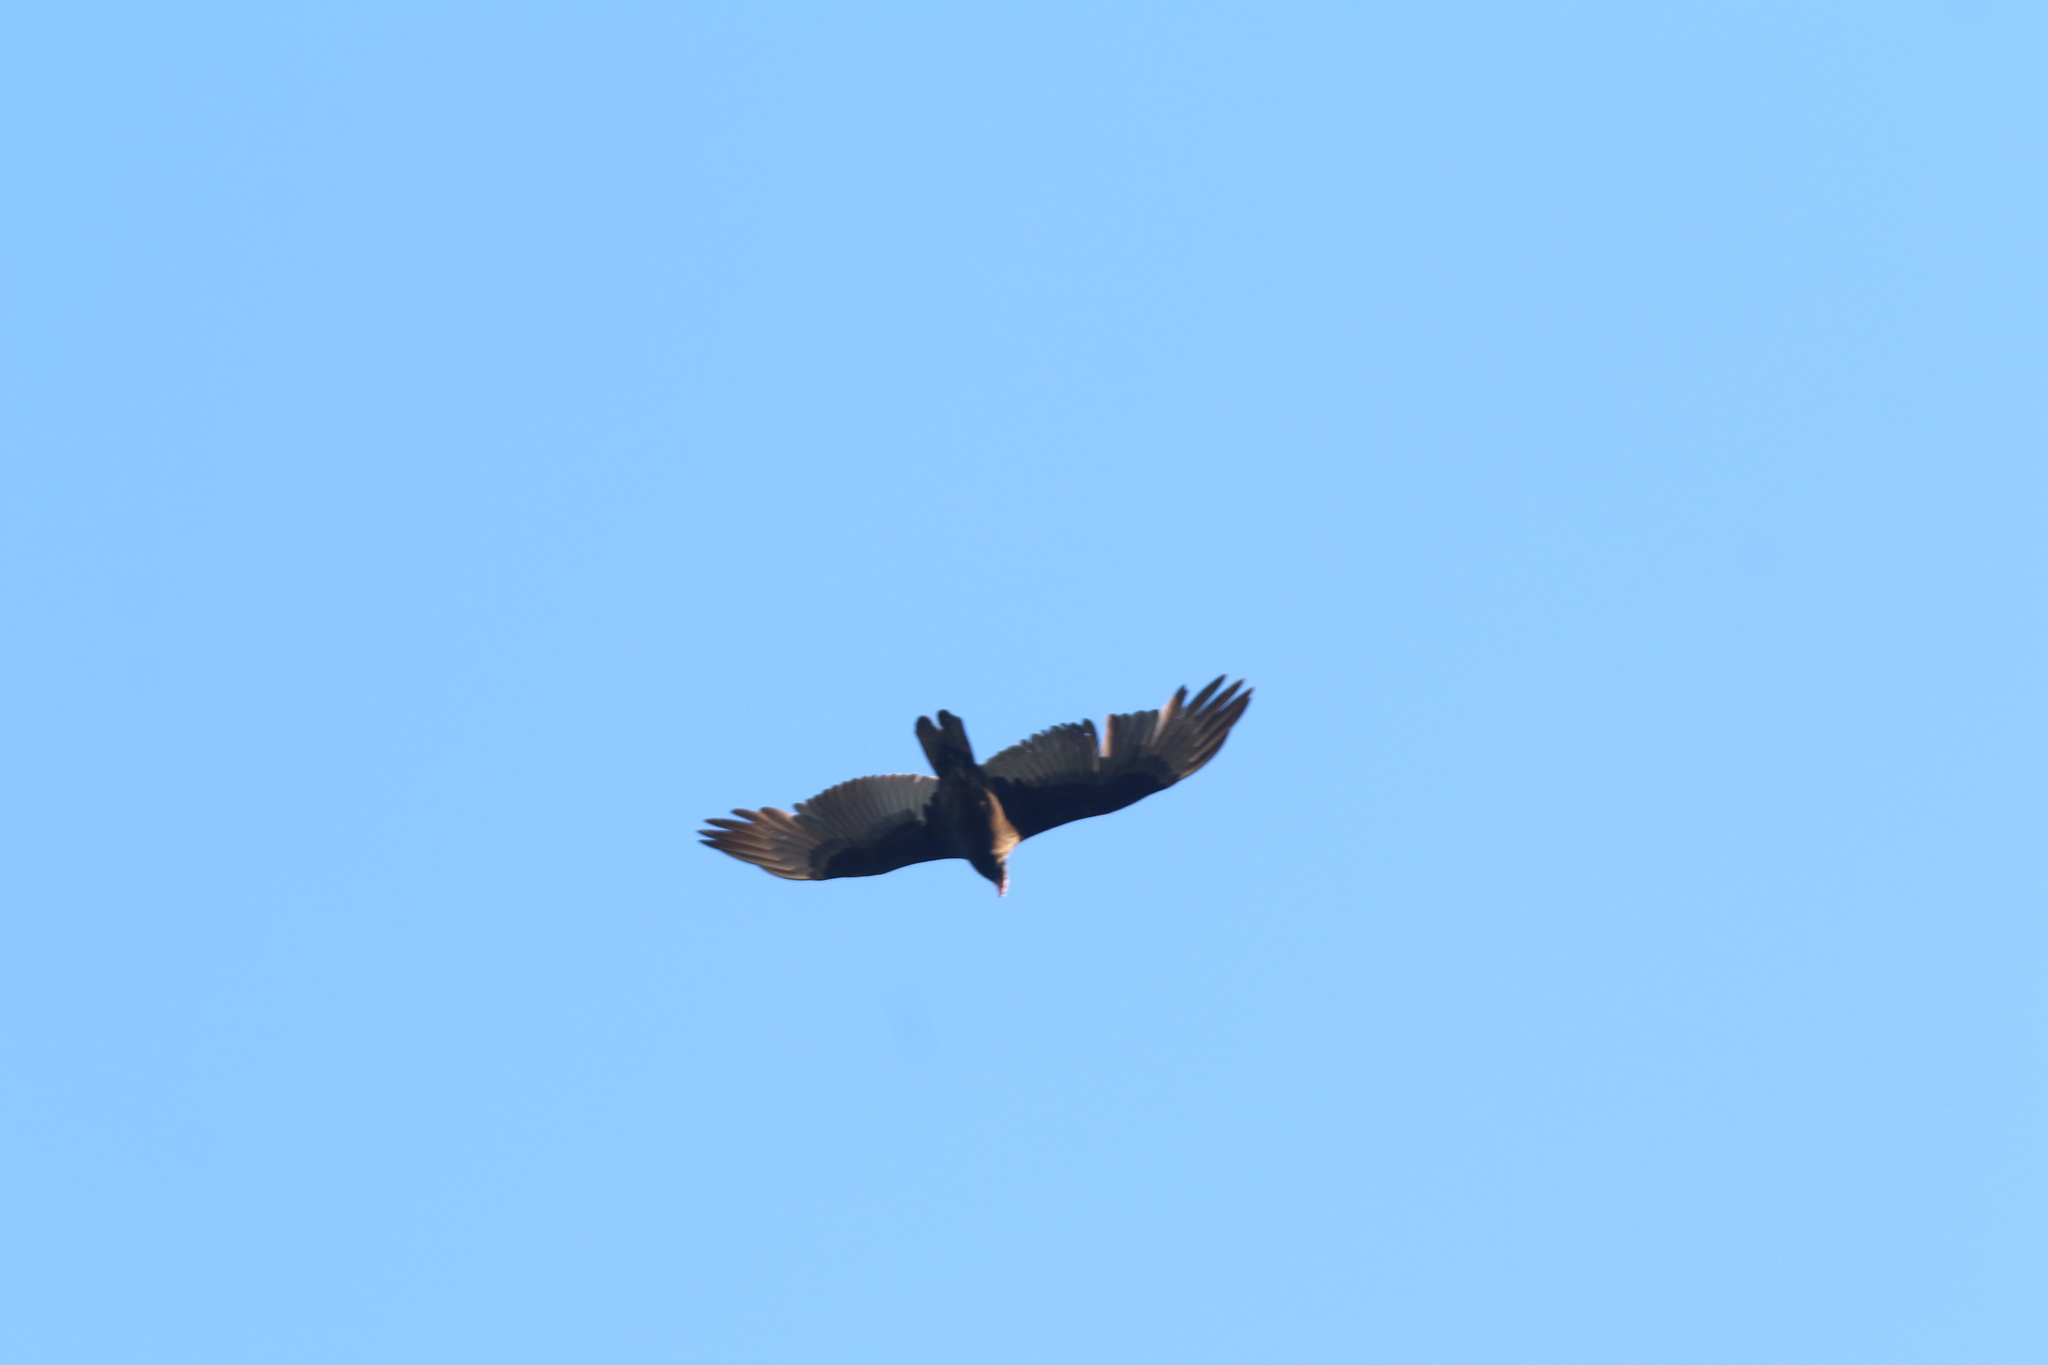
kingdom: Animalia
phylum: Chordata
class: Aves
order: Accipitriformes
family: Cathartidae
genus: Cathartes
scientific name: Cathartes aura
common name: Turkey vulture
